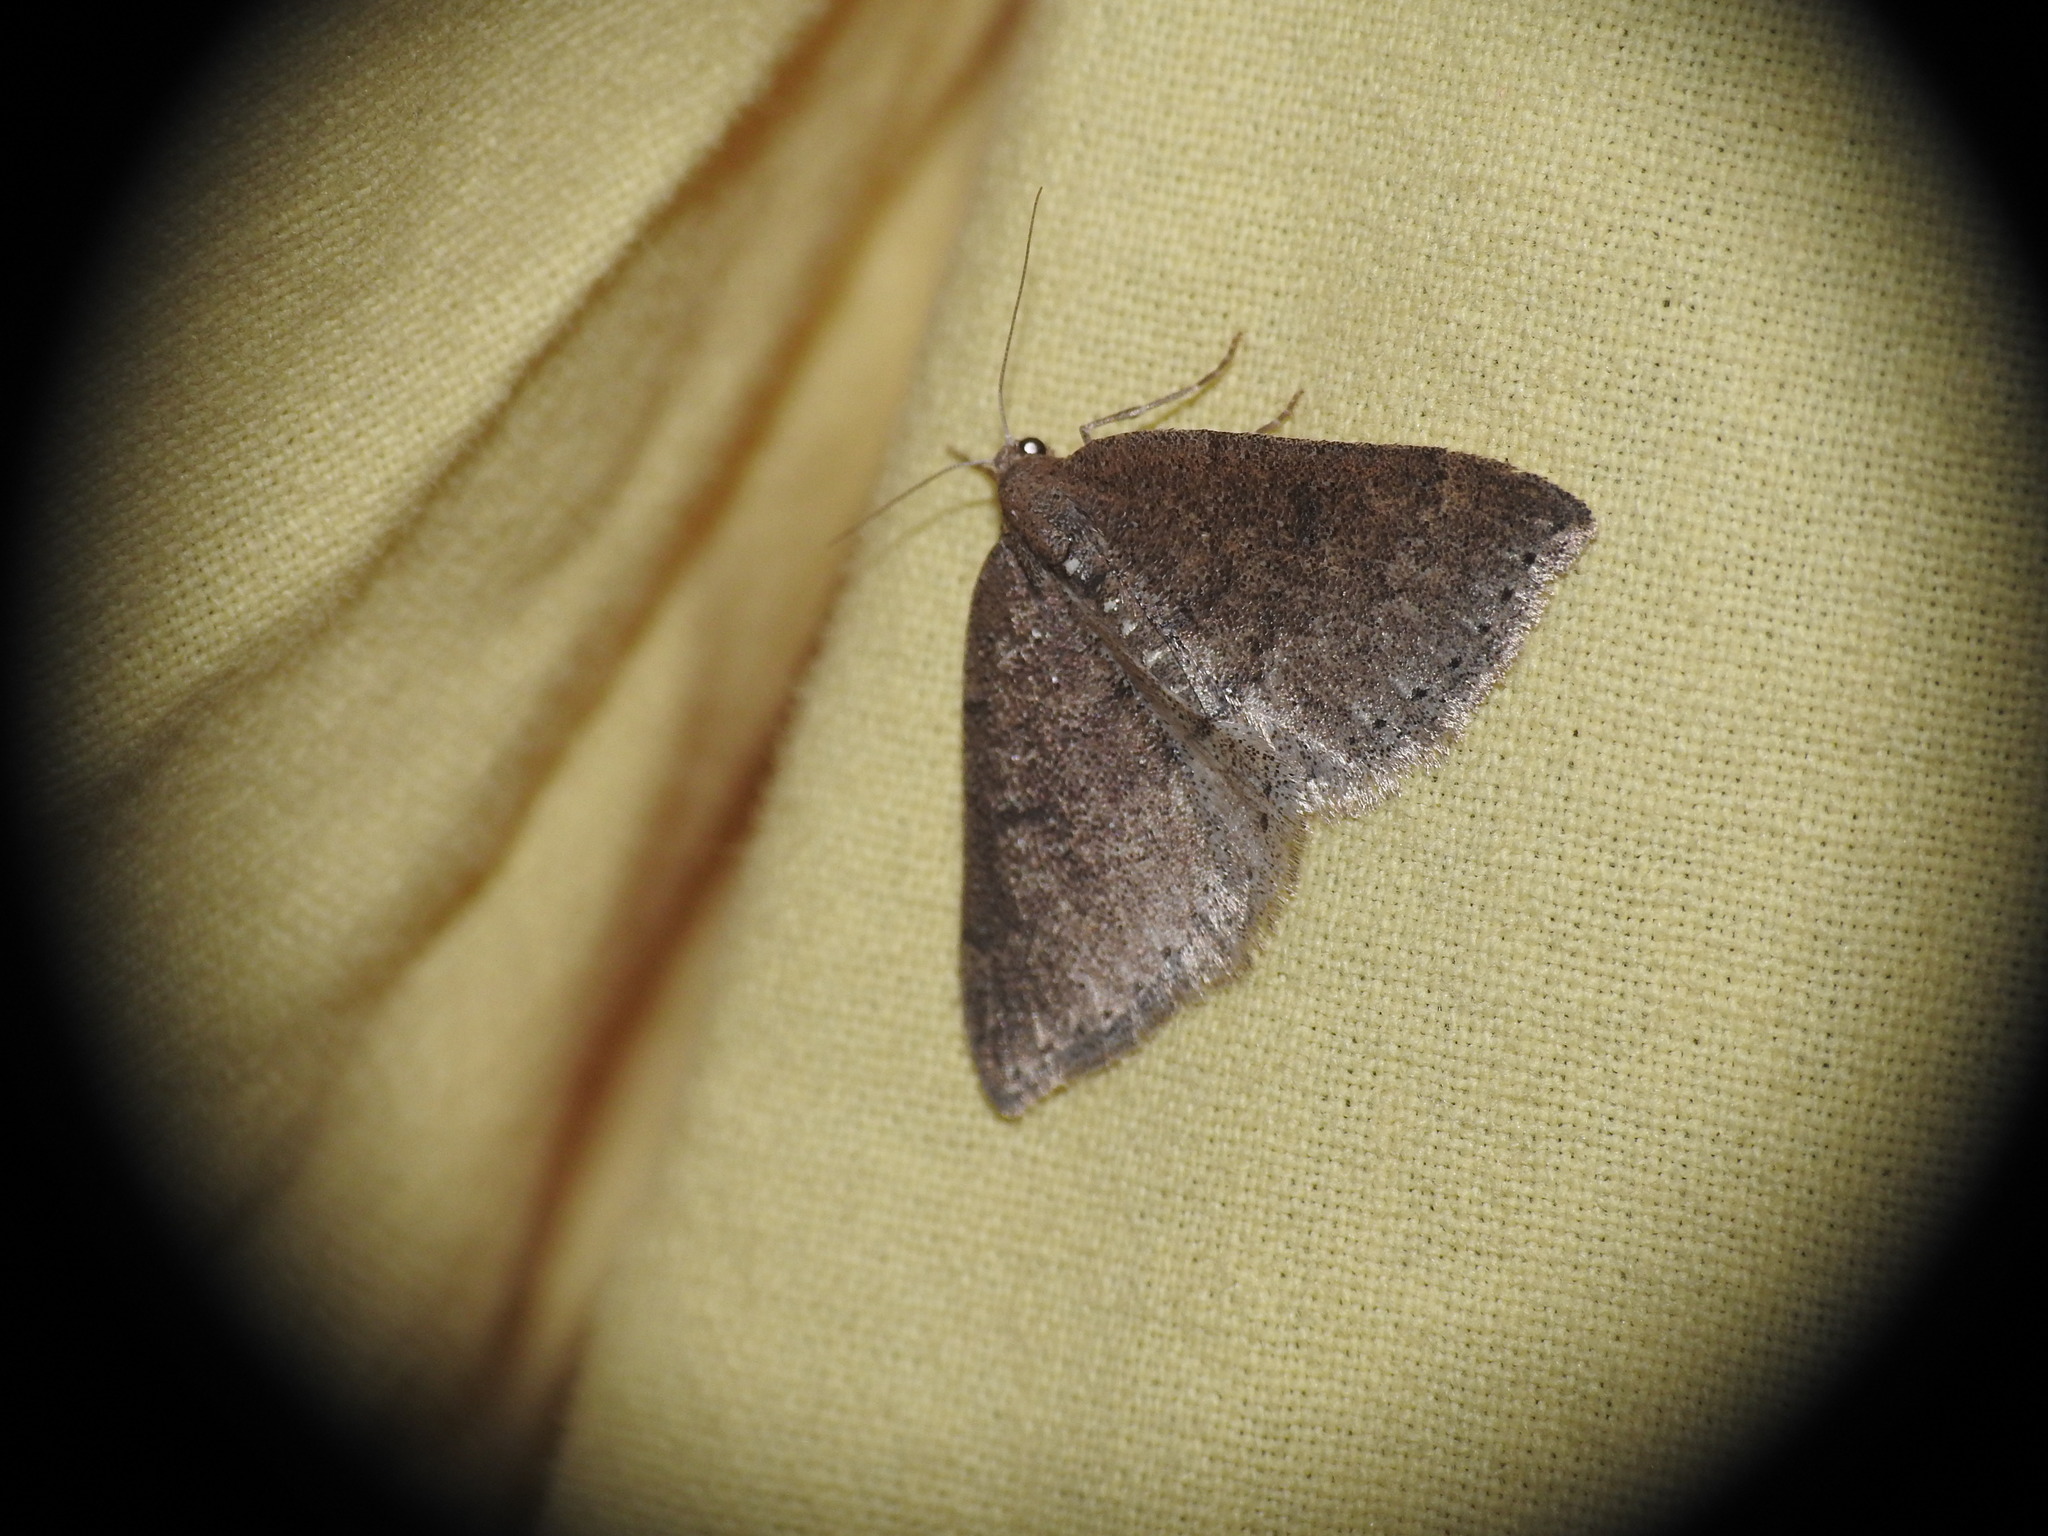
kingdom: Animalia
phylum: Arthropoda
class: Insecta
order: Lepidoptera
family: Geometridae
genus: Aleucis
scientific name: Aleucis distinctata
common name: Sloe carpet
